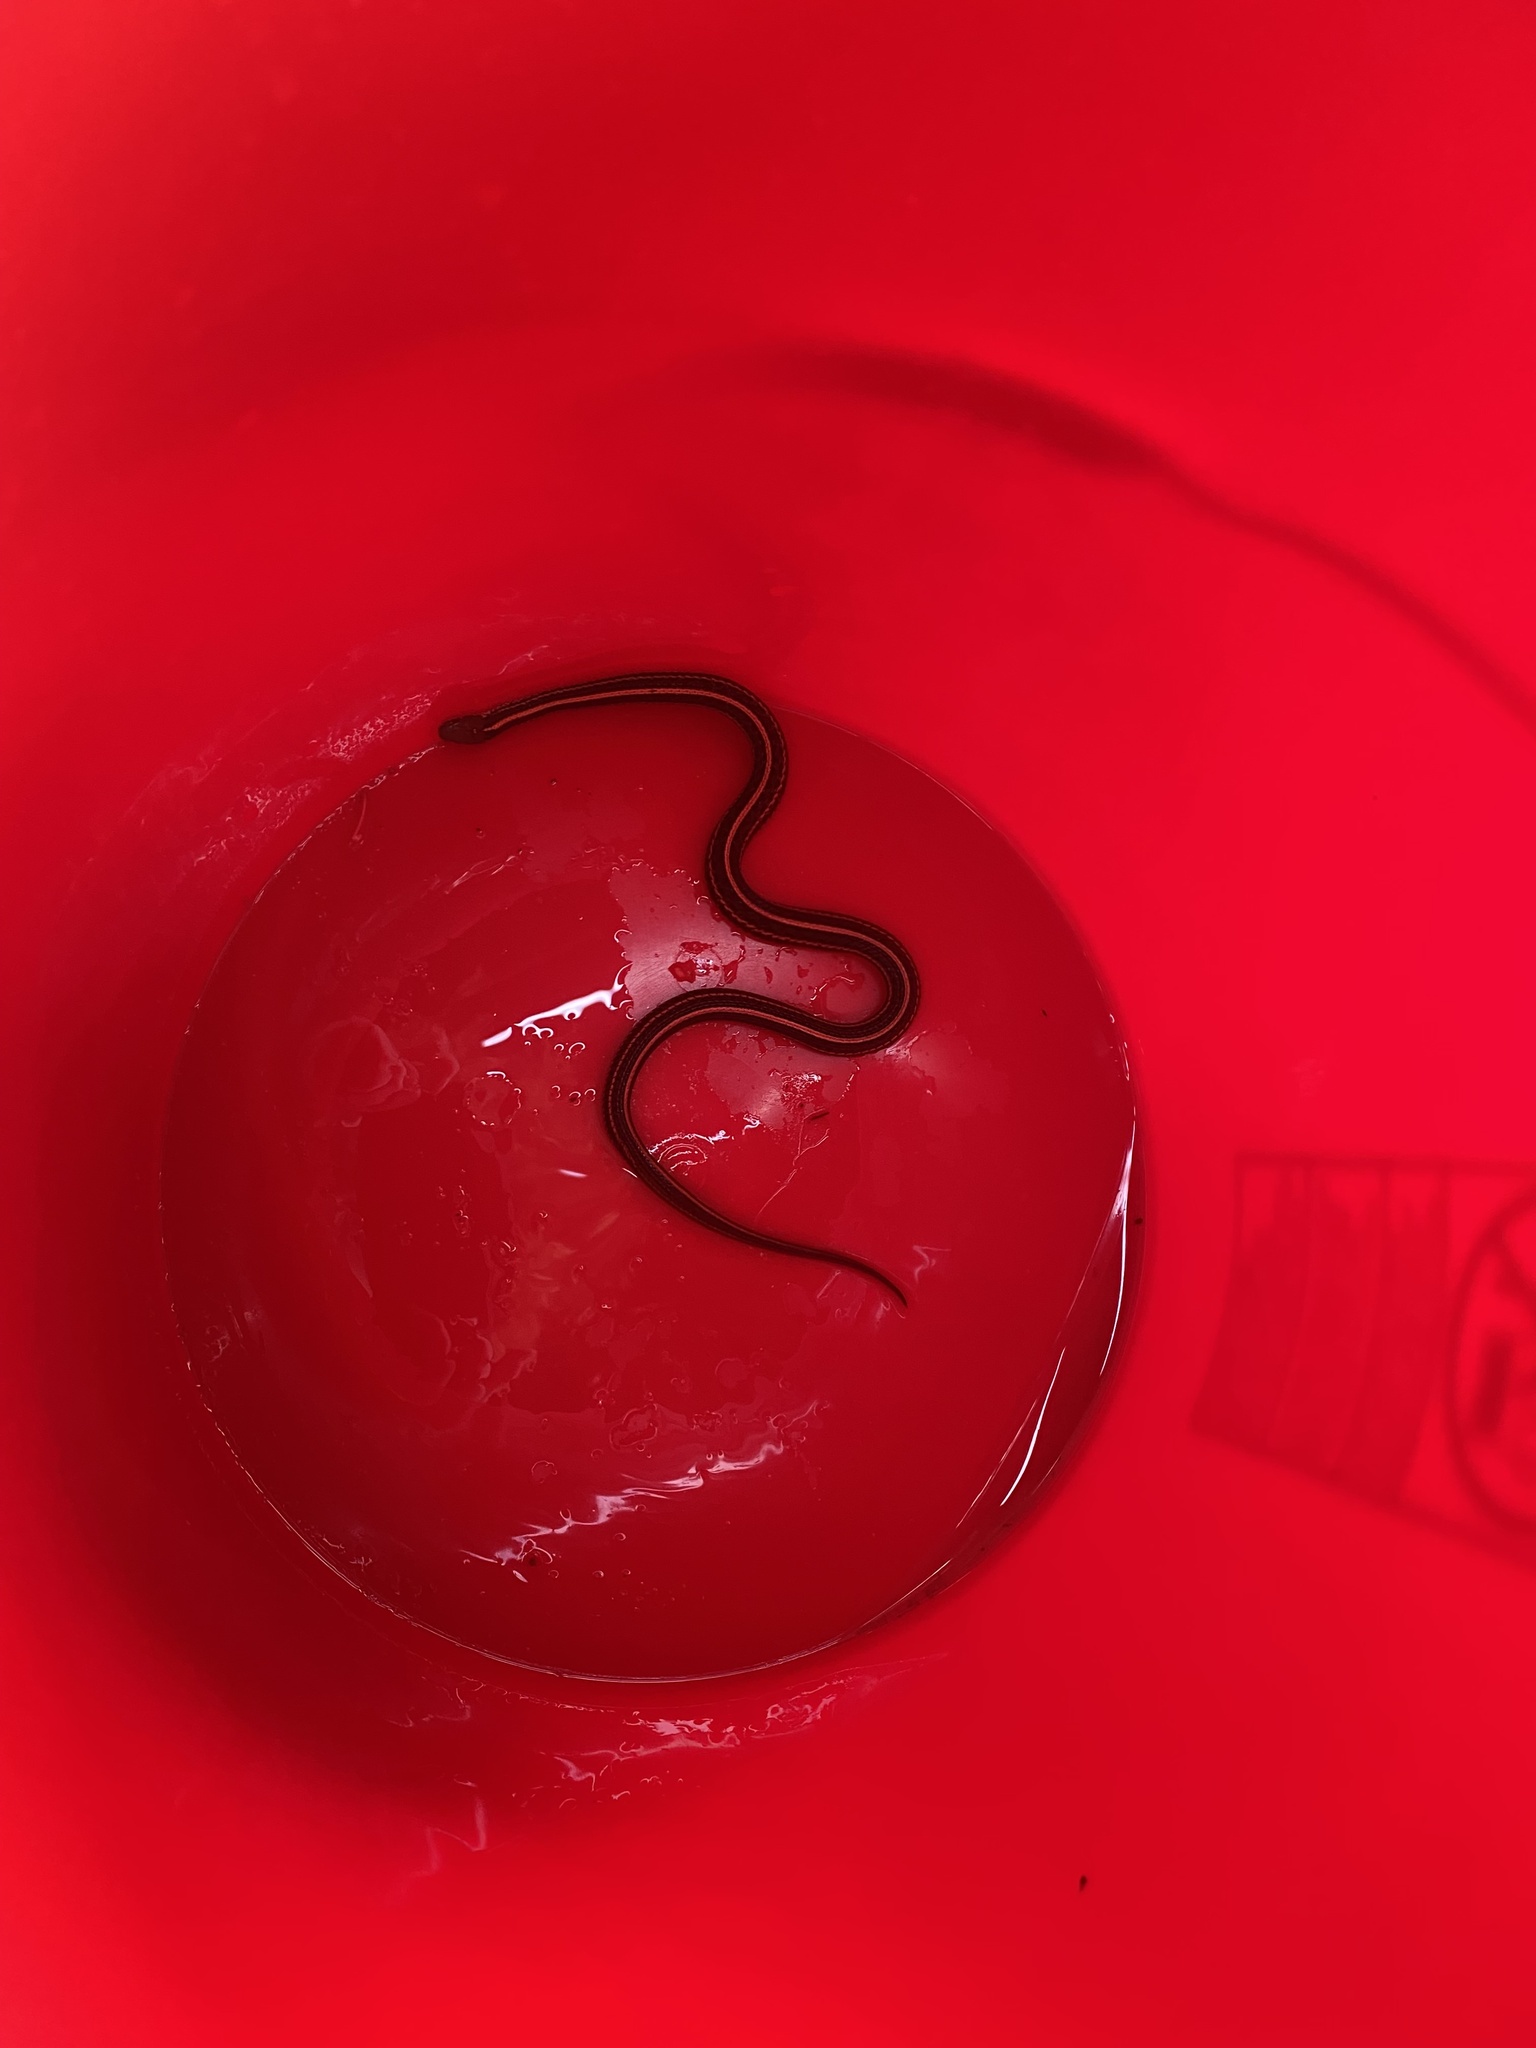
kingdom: Animalia
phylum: Chordata
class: Squamata
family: Colubridae
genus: Thamnophis
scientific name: Thamnophis sirtalis
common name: Common garter snake
